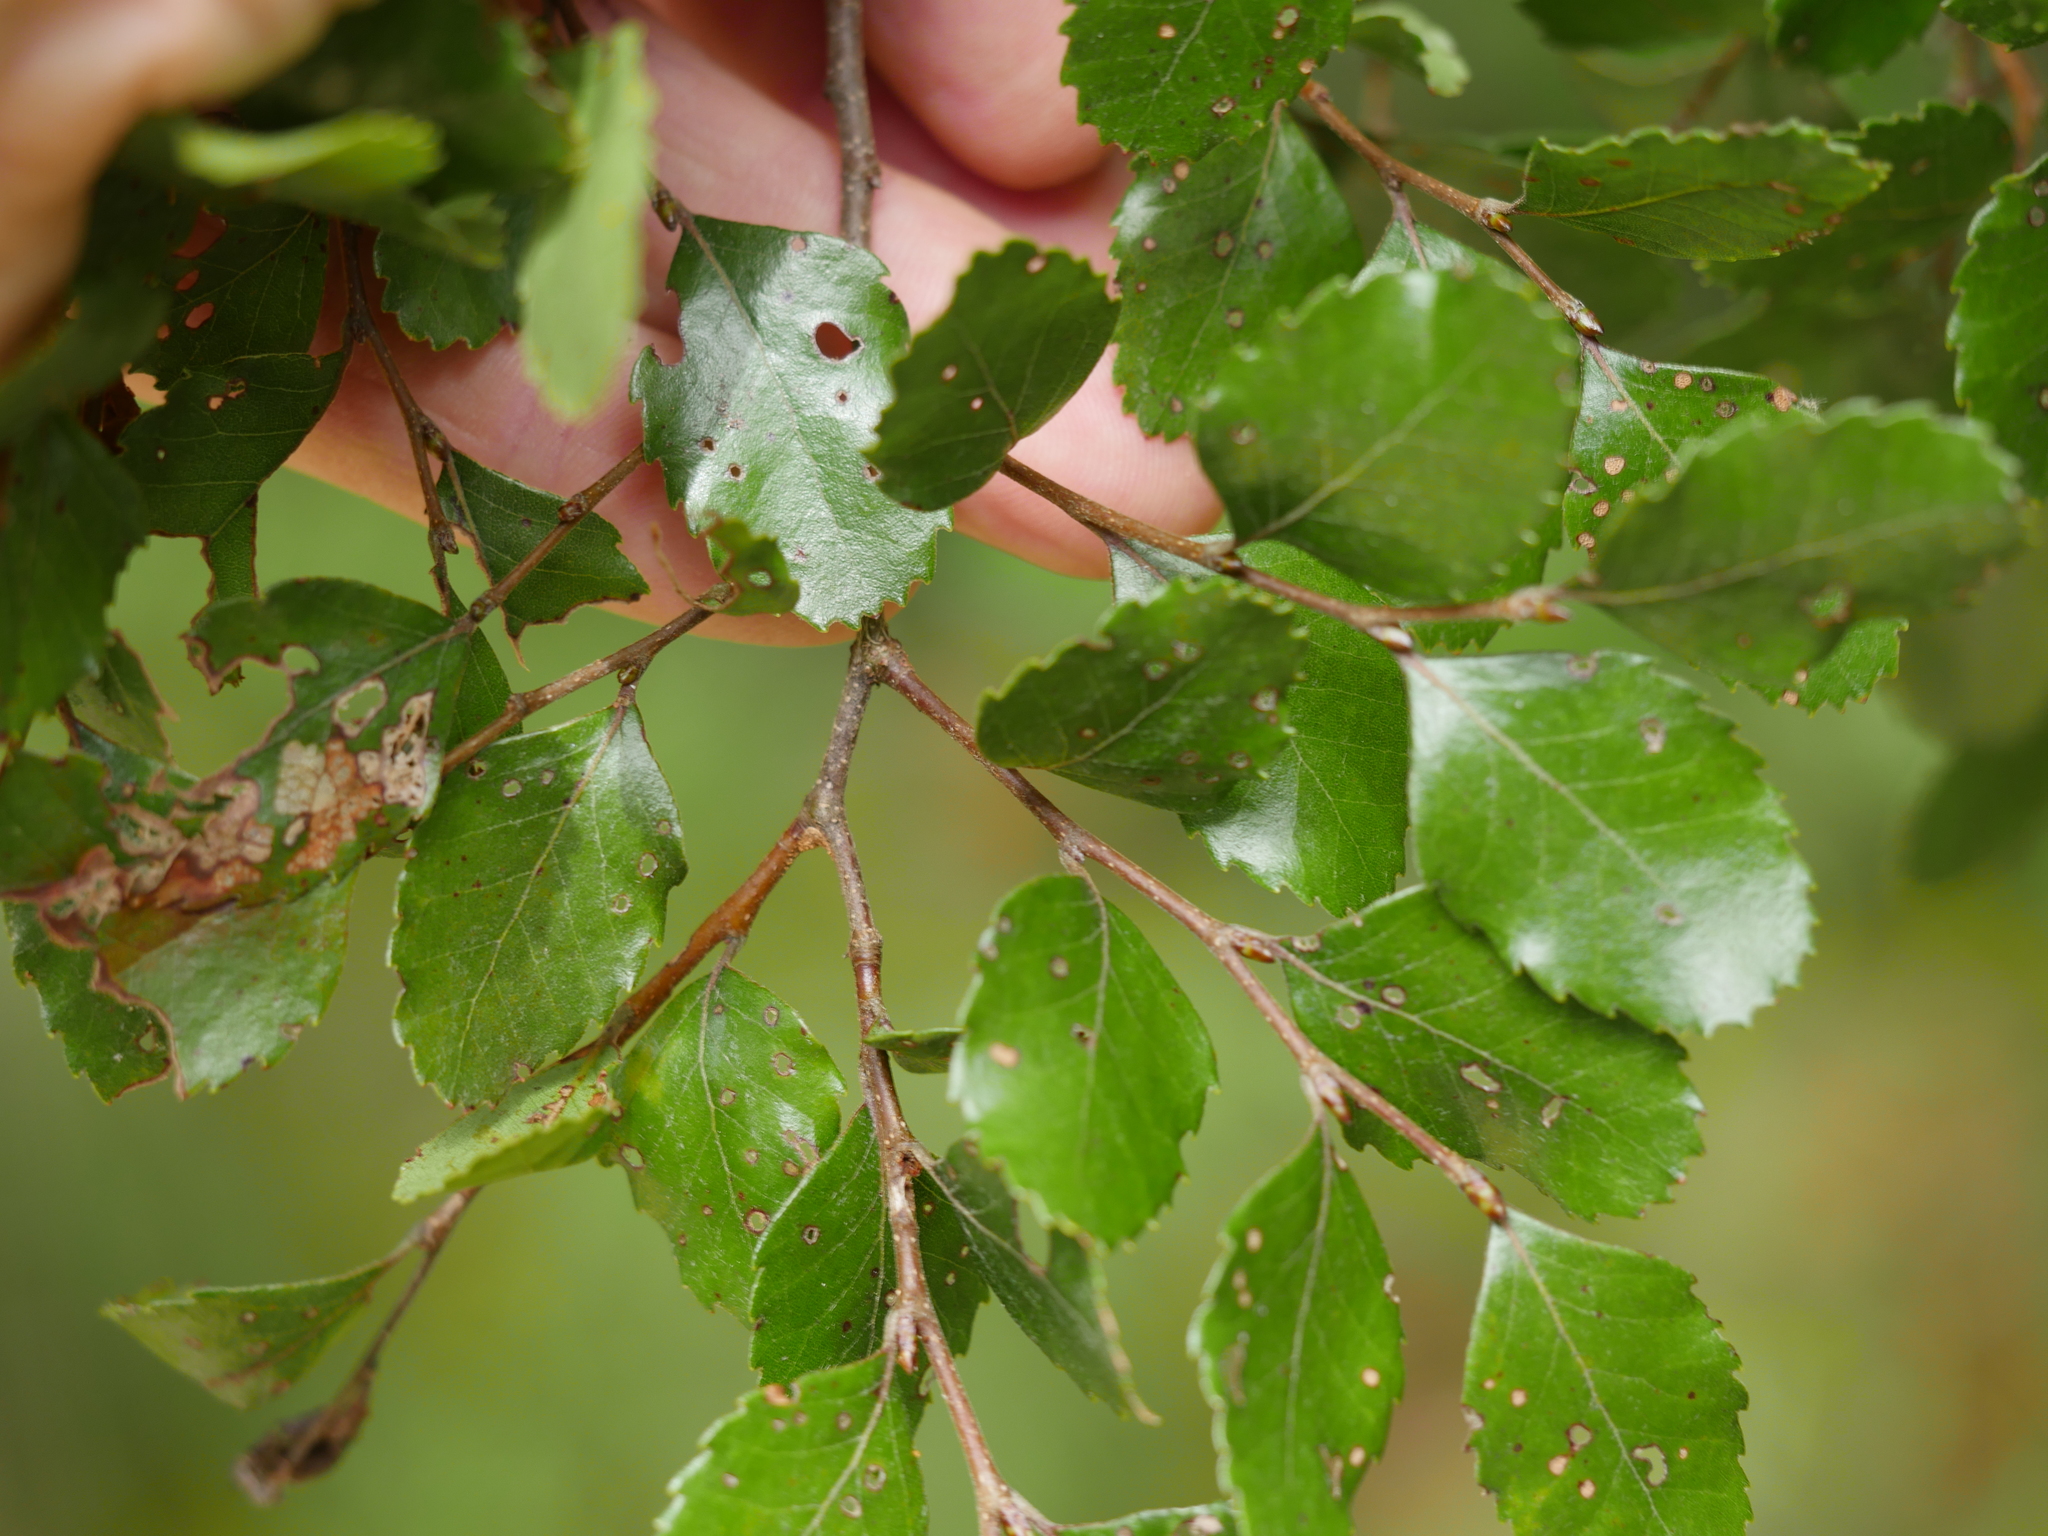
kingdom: Plantae
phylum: Tracheophyta
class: Magnoliopsida
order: Fagales
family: Nothofagaceae
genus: Nothofagus
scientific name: Nothofagus truncata
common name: Hard beech
